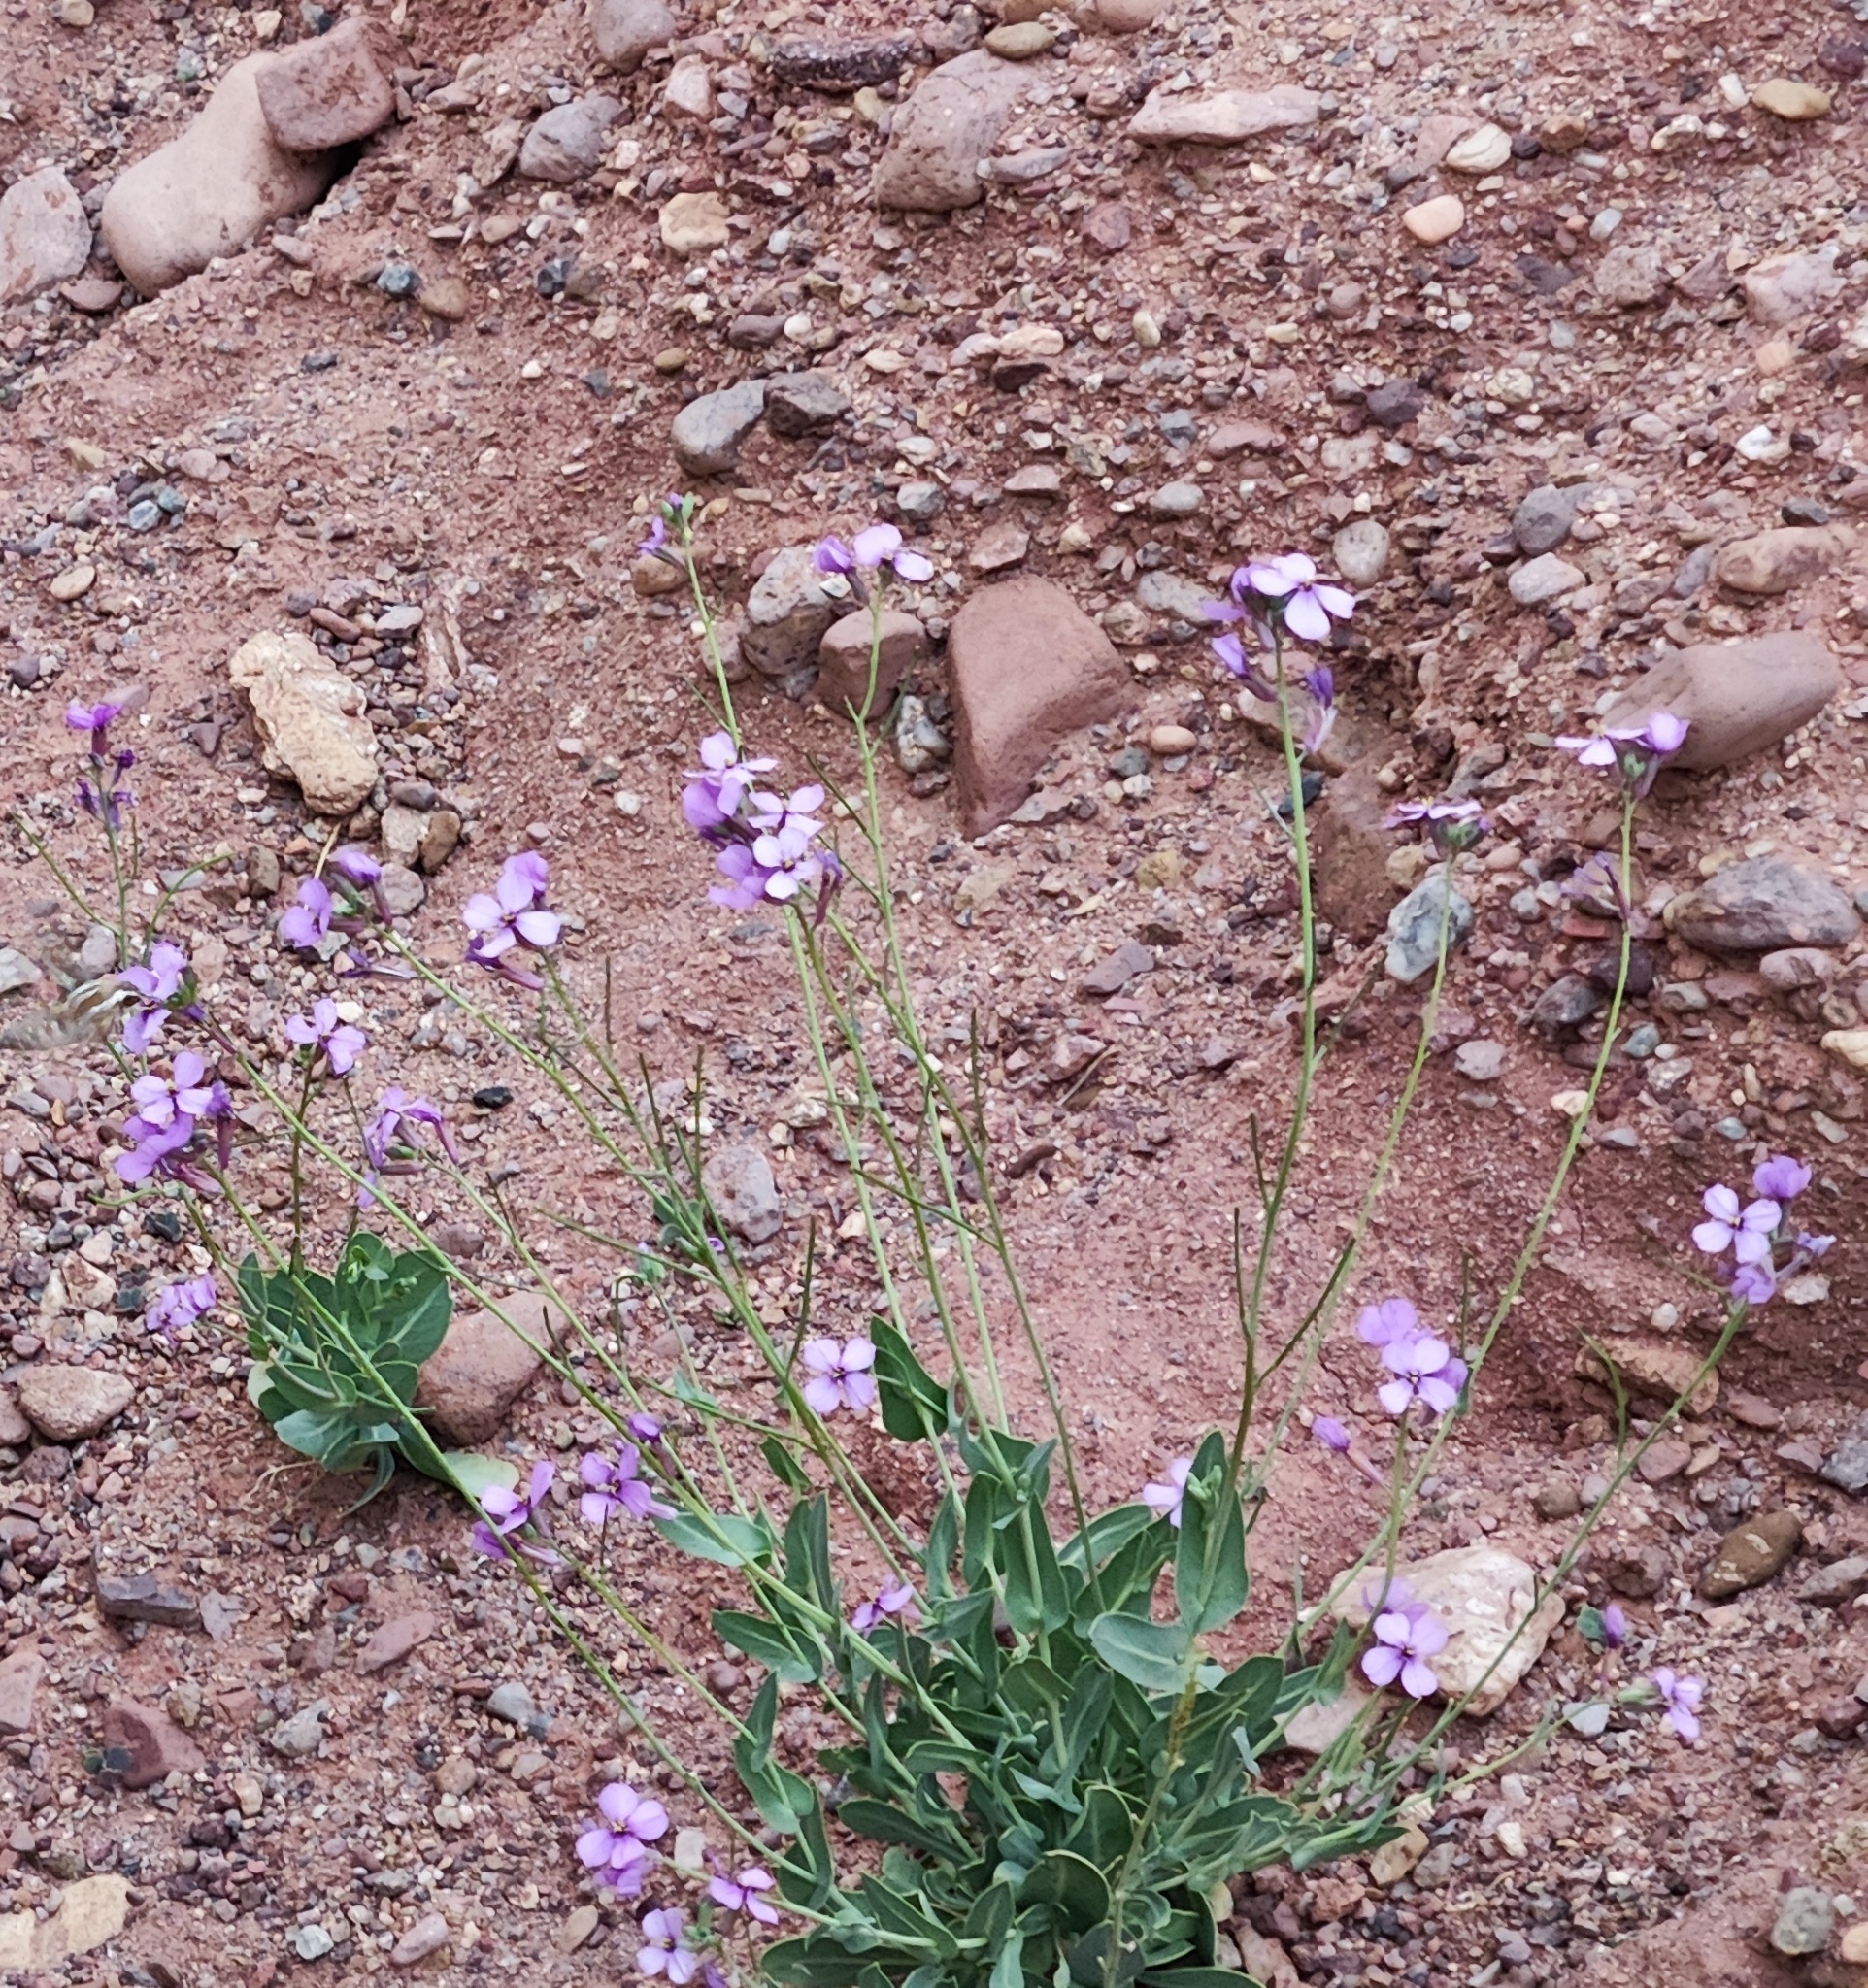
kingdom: Plantae
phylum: Tracheophyta
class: Magnoliopsida
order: Brassicales
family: Brassicaceae
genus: Moricandia
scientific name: Moricandia suffruticosa
